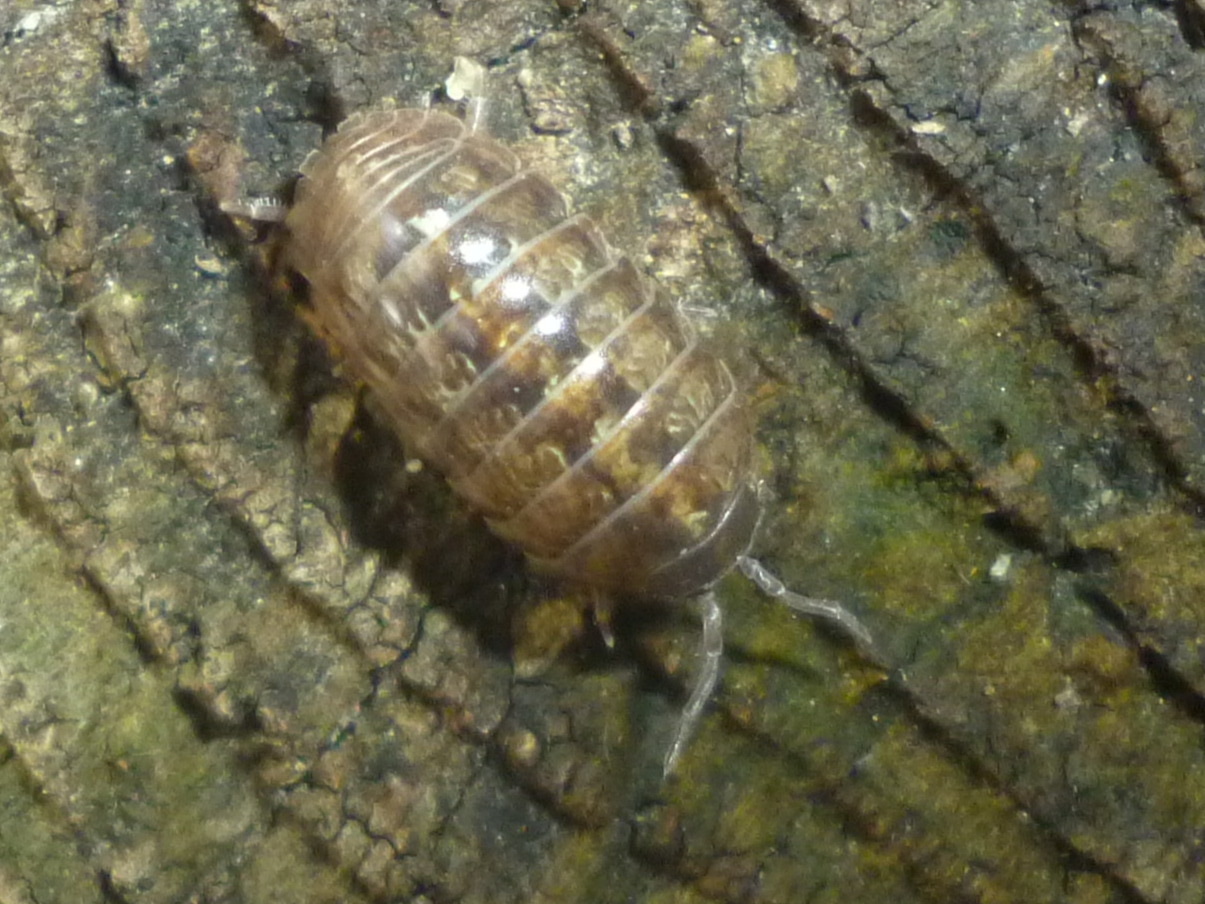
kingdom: Animalia
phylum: Arthropoda
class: Malacostraca
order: Isopoda
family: Armadillidiidae
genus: Armadillidium
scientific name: Armadillidium vulgare
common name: Common pill woodlouse
